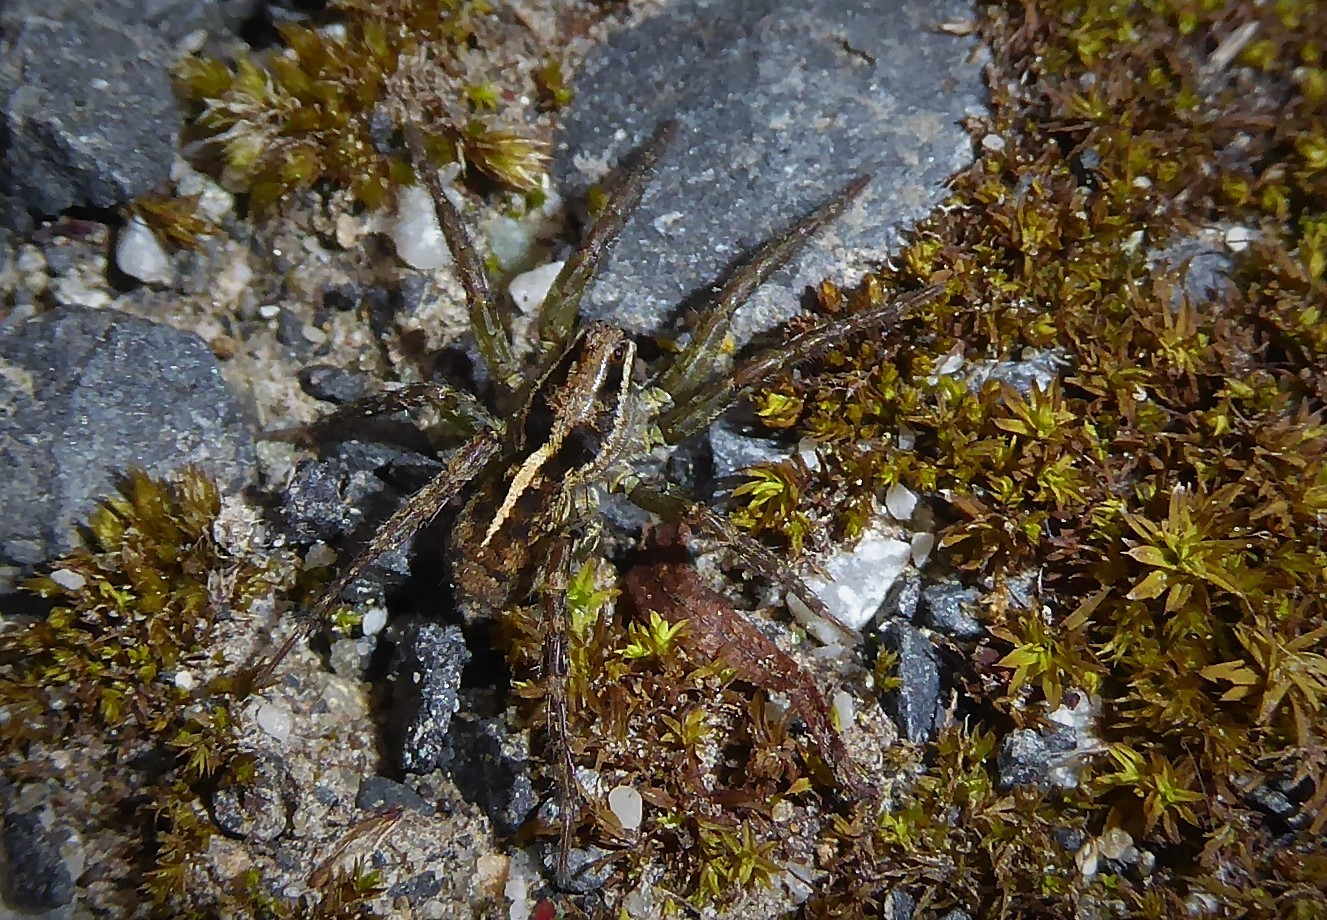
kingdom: Animalia
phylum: Arthropoda
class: Arachnida
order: Araneae
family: Lycosidae
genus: Anoteropsis
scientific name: Anoteropsis hilaris
